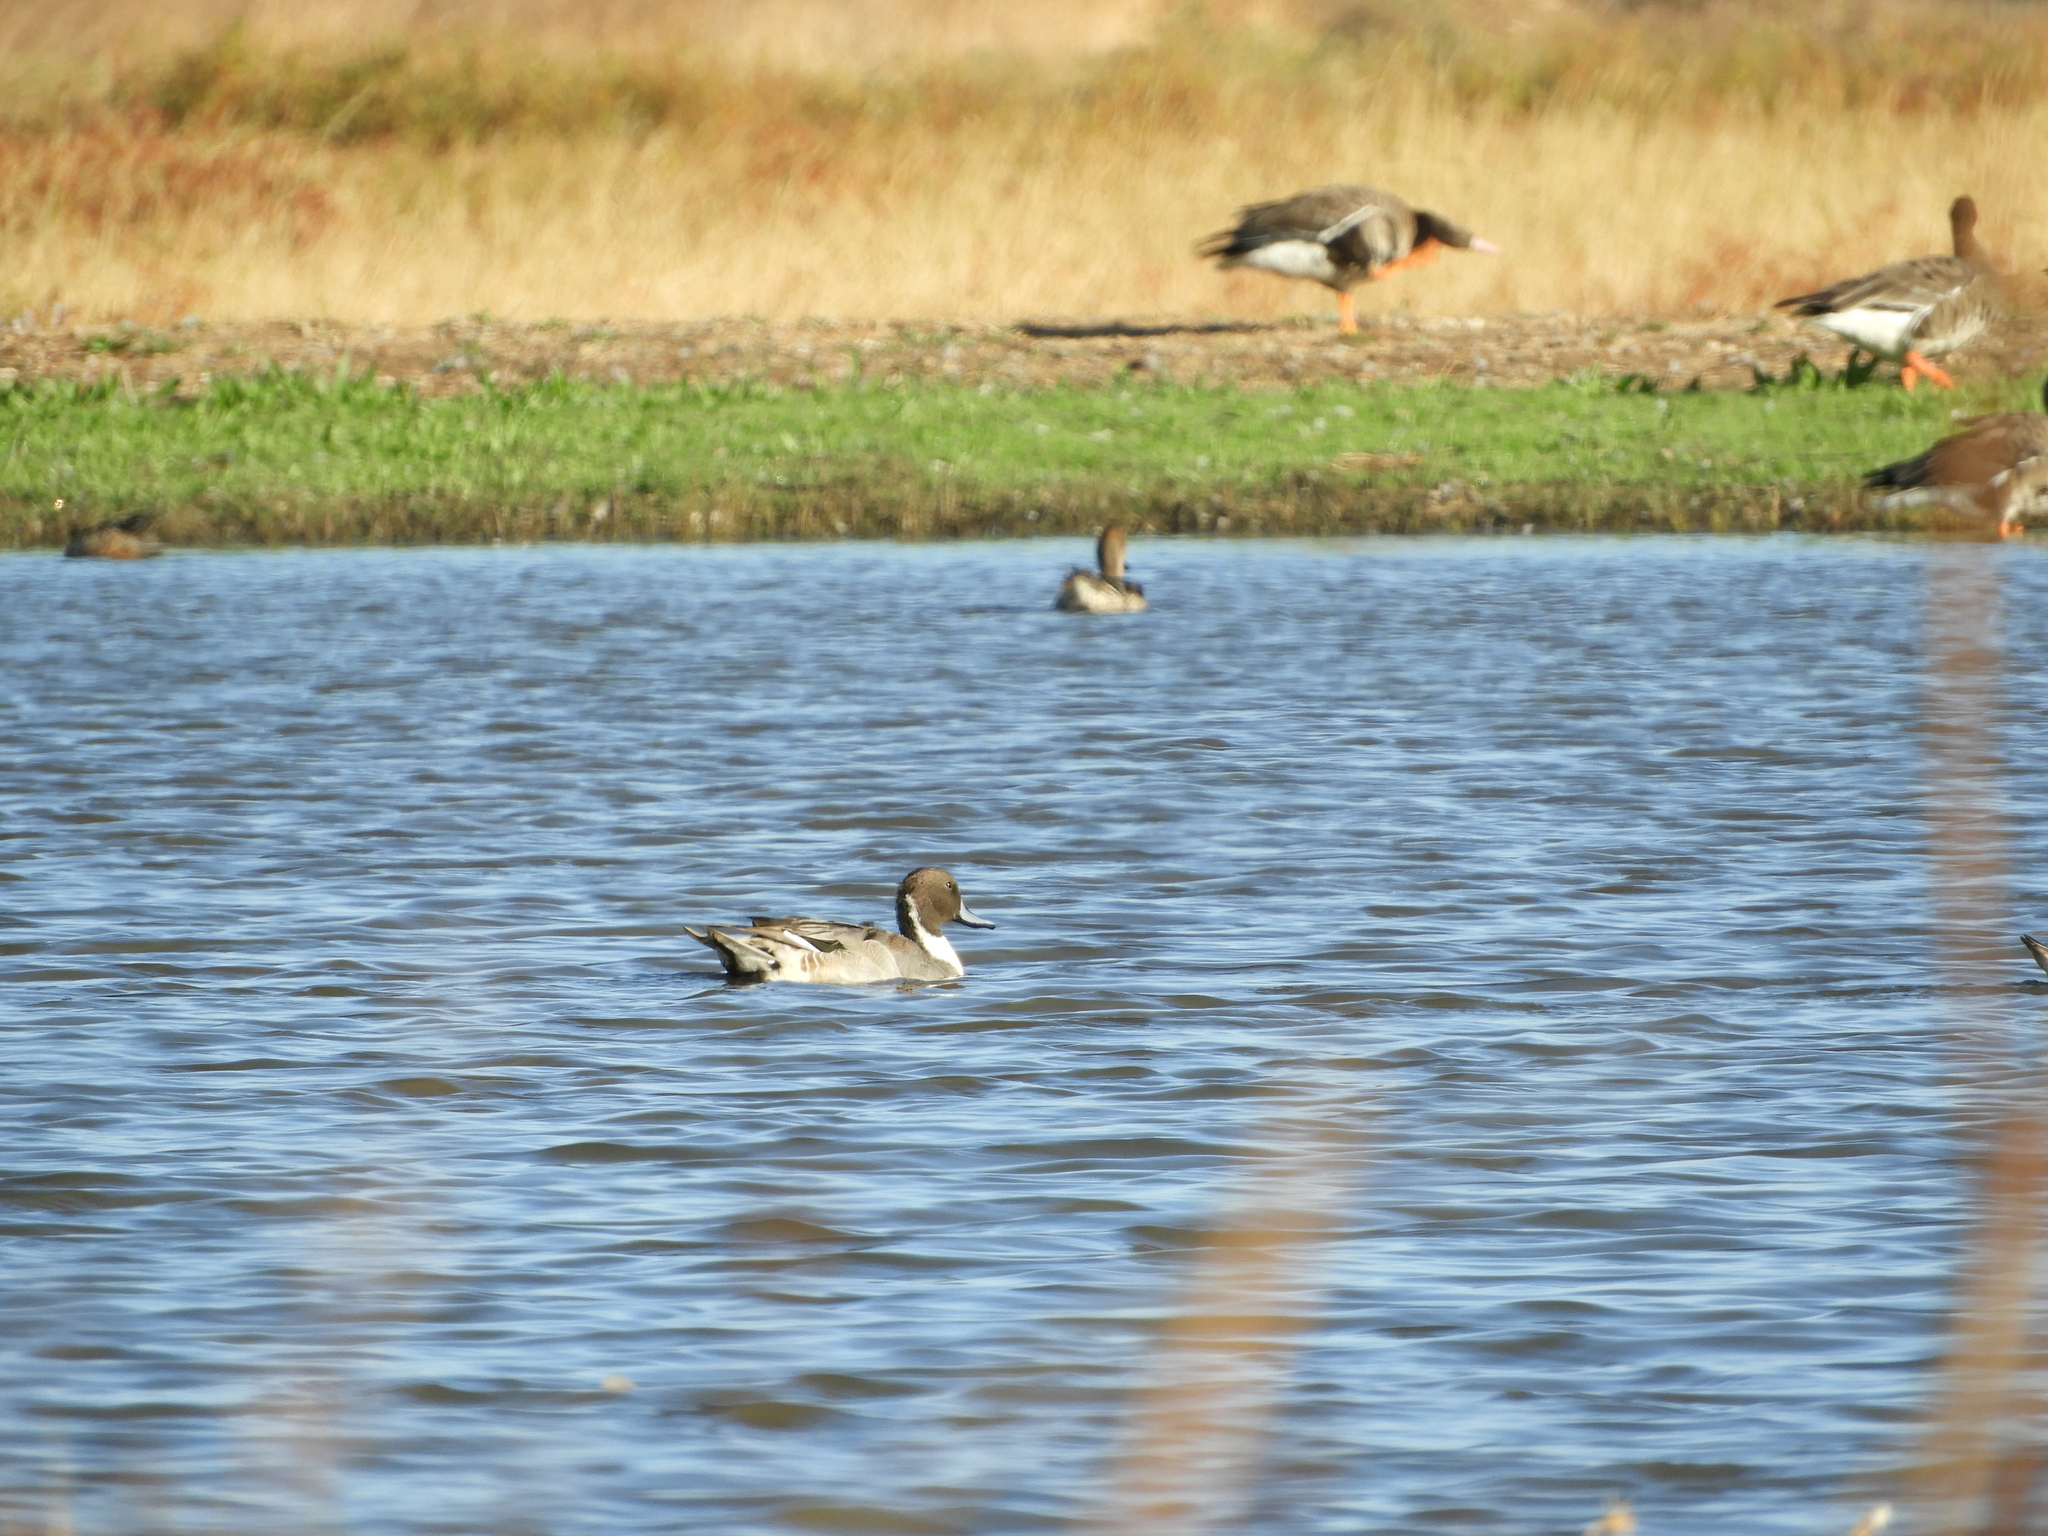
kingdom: Animalia
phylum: Chordata
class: Aves
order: Anseriformes
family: Anatidae
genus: Anas
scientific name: Anas acuta
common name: Northern pintail
